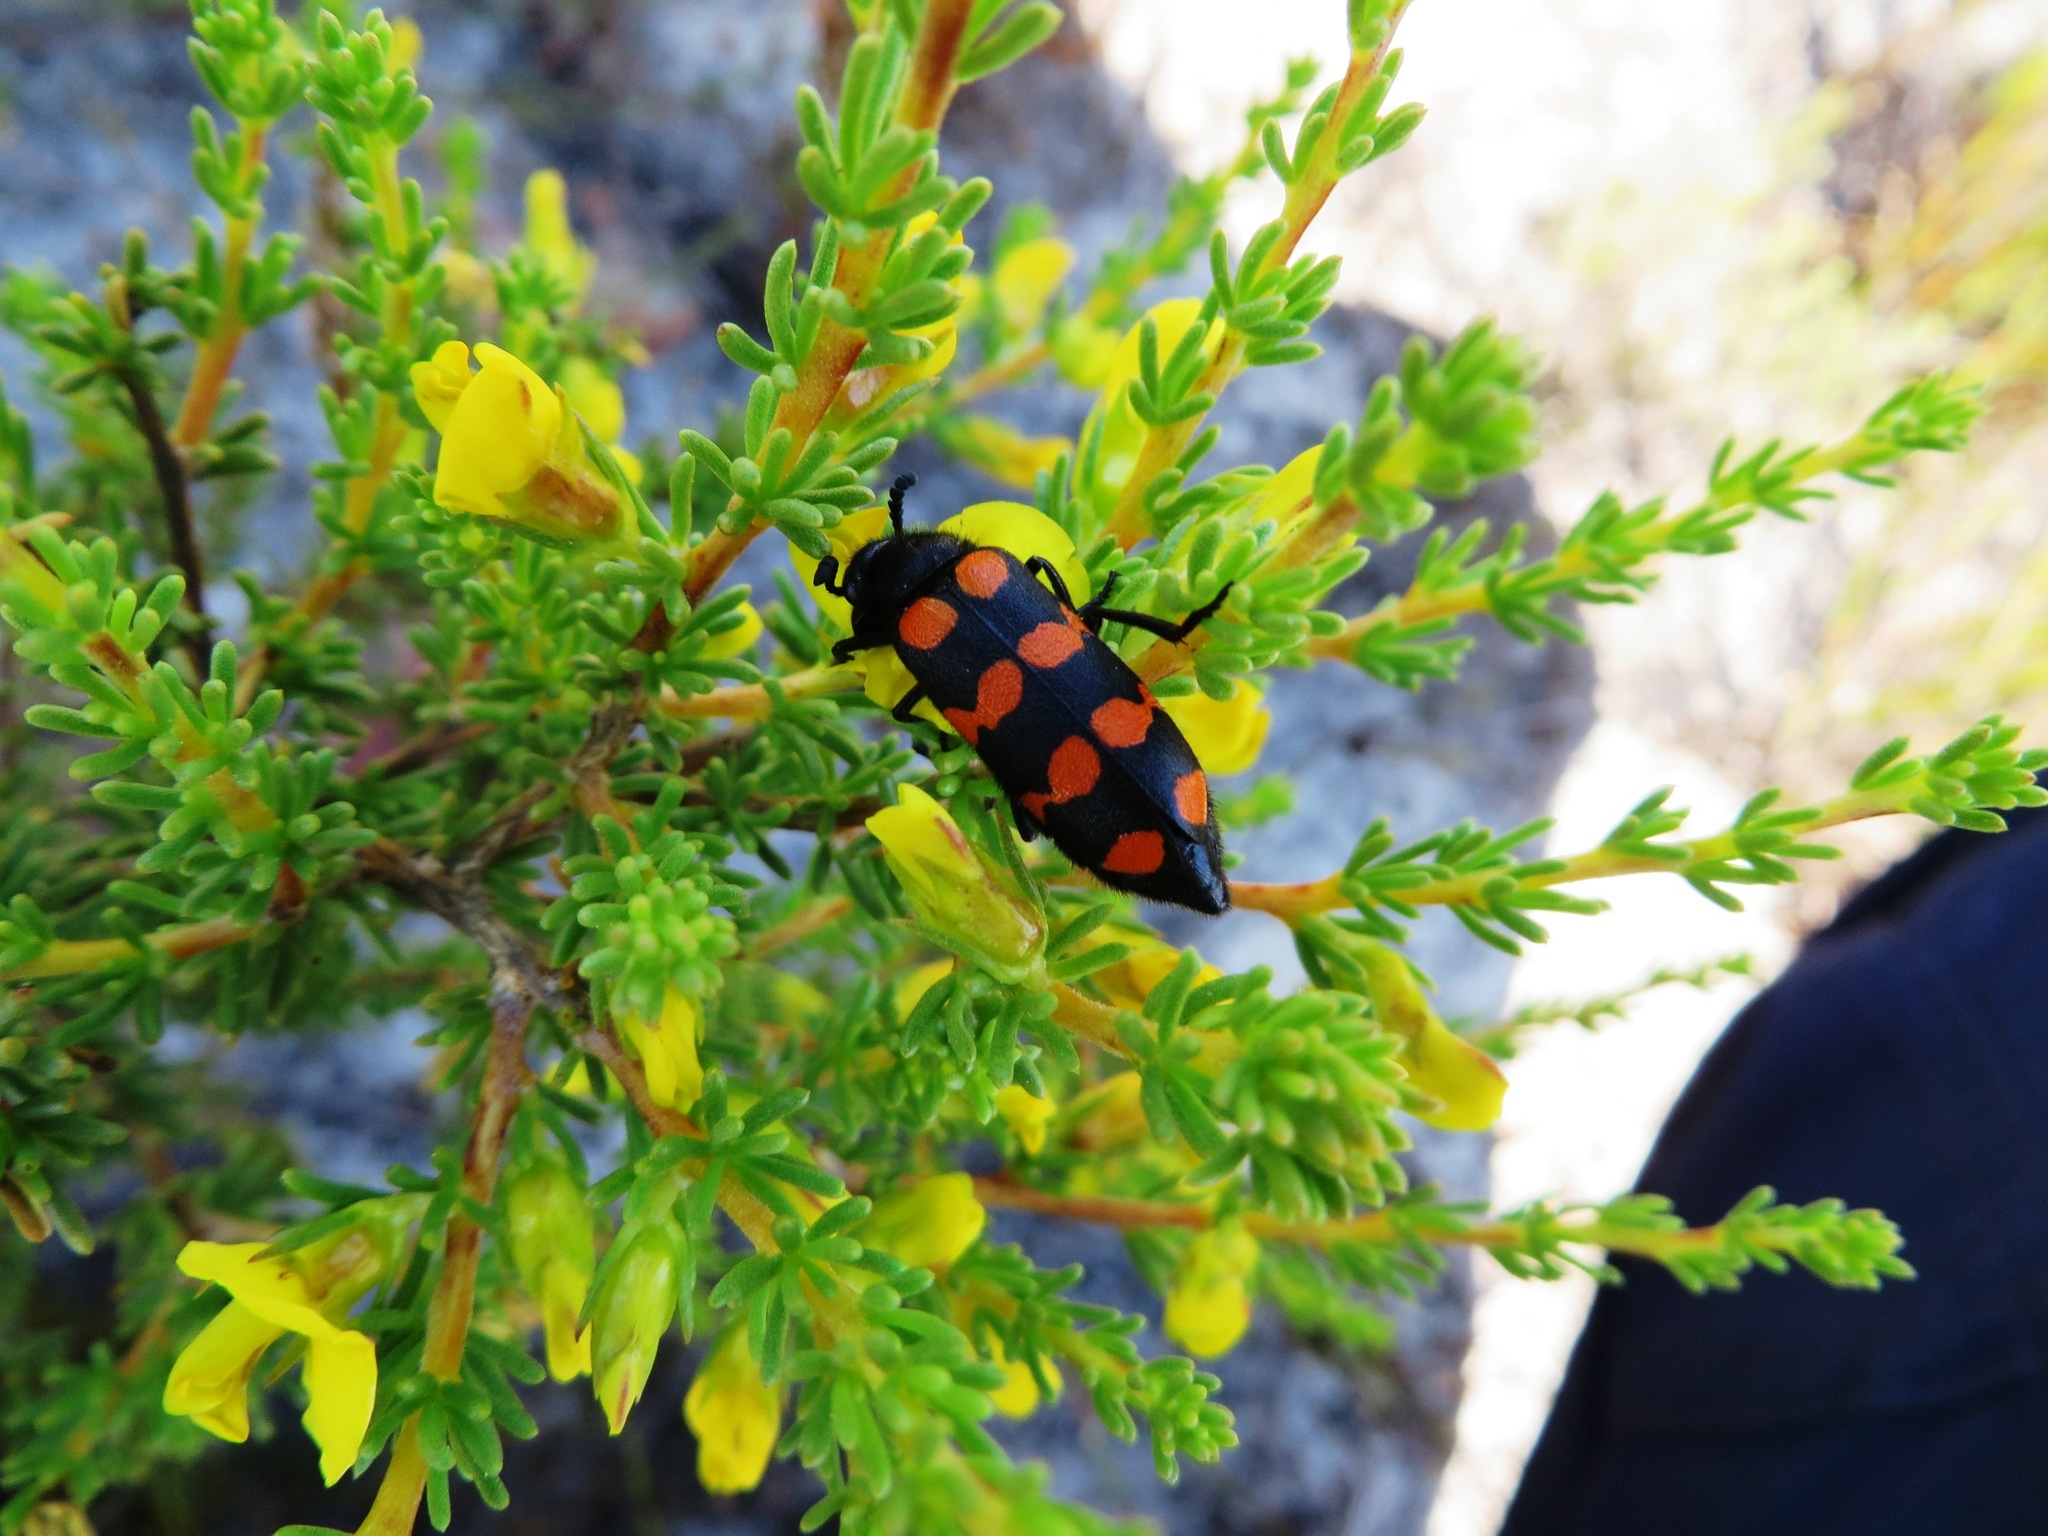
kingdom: Animalia
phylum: Arthropoda
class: Insecta
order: Coleoptera
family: Meloidae
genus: Ceroctis
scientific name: Ceroctis gyllenhalli
